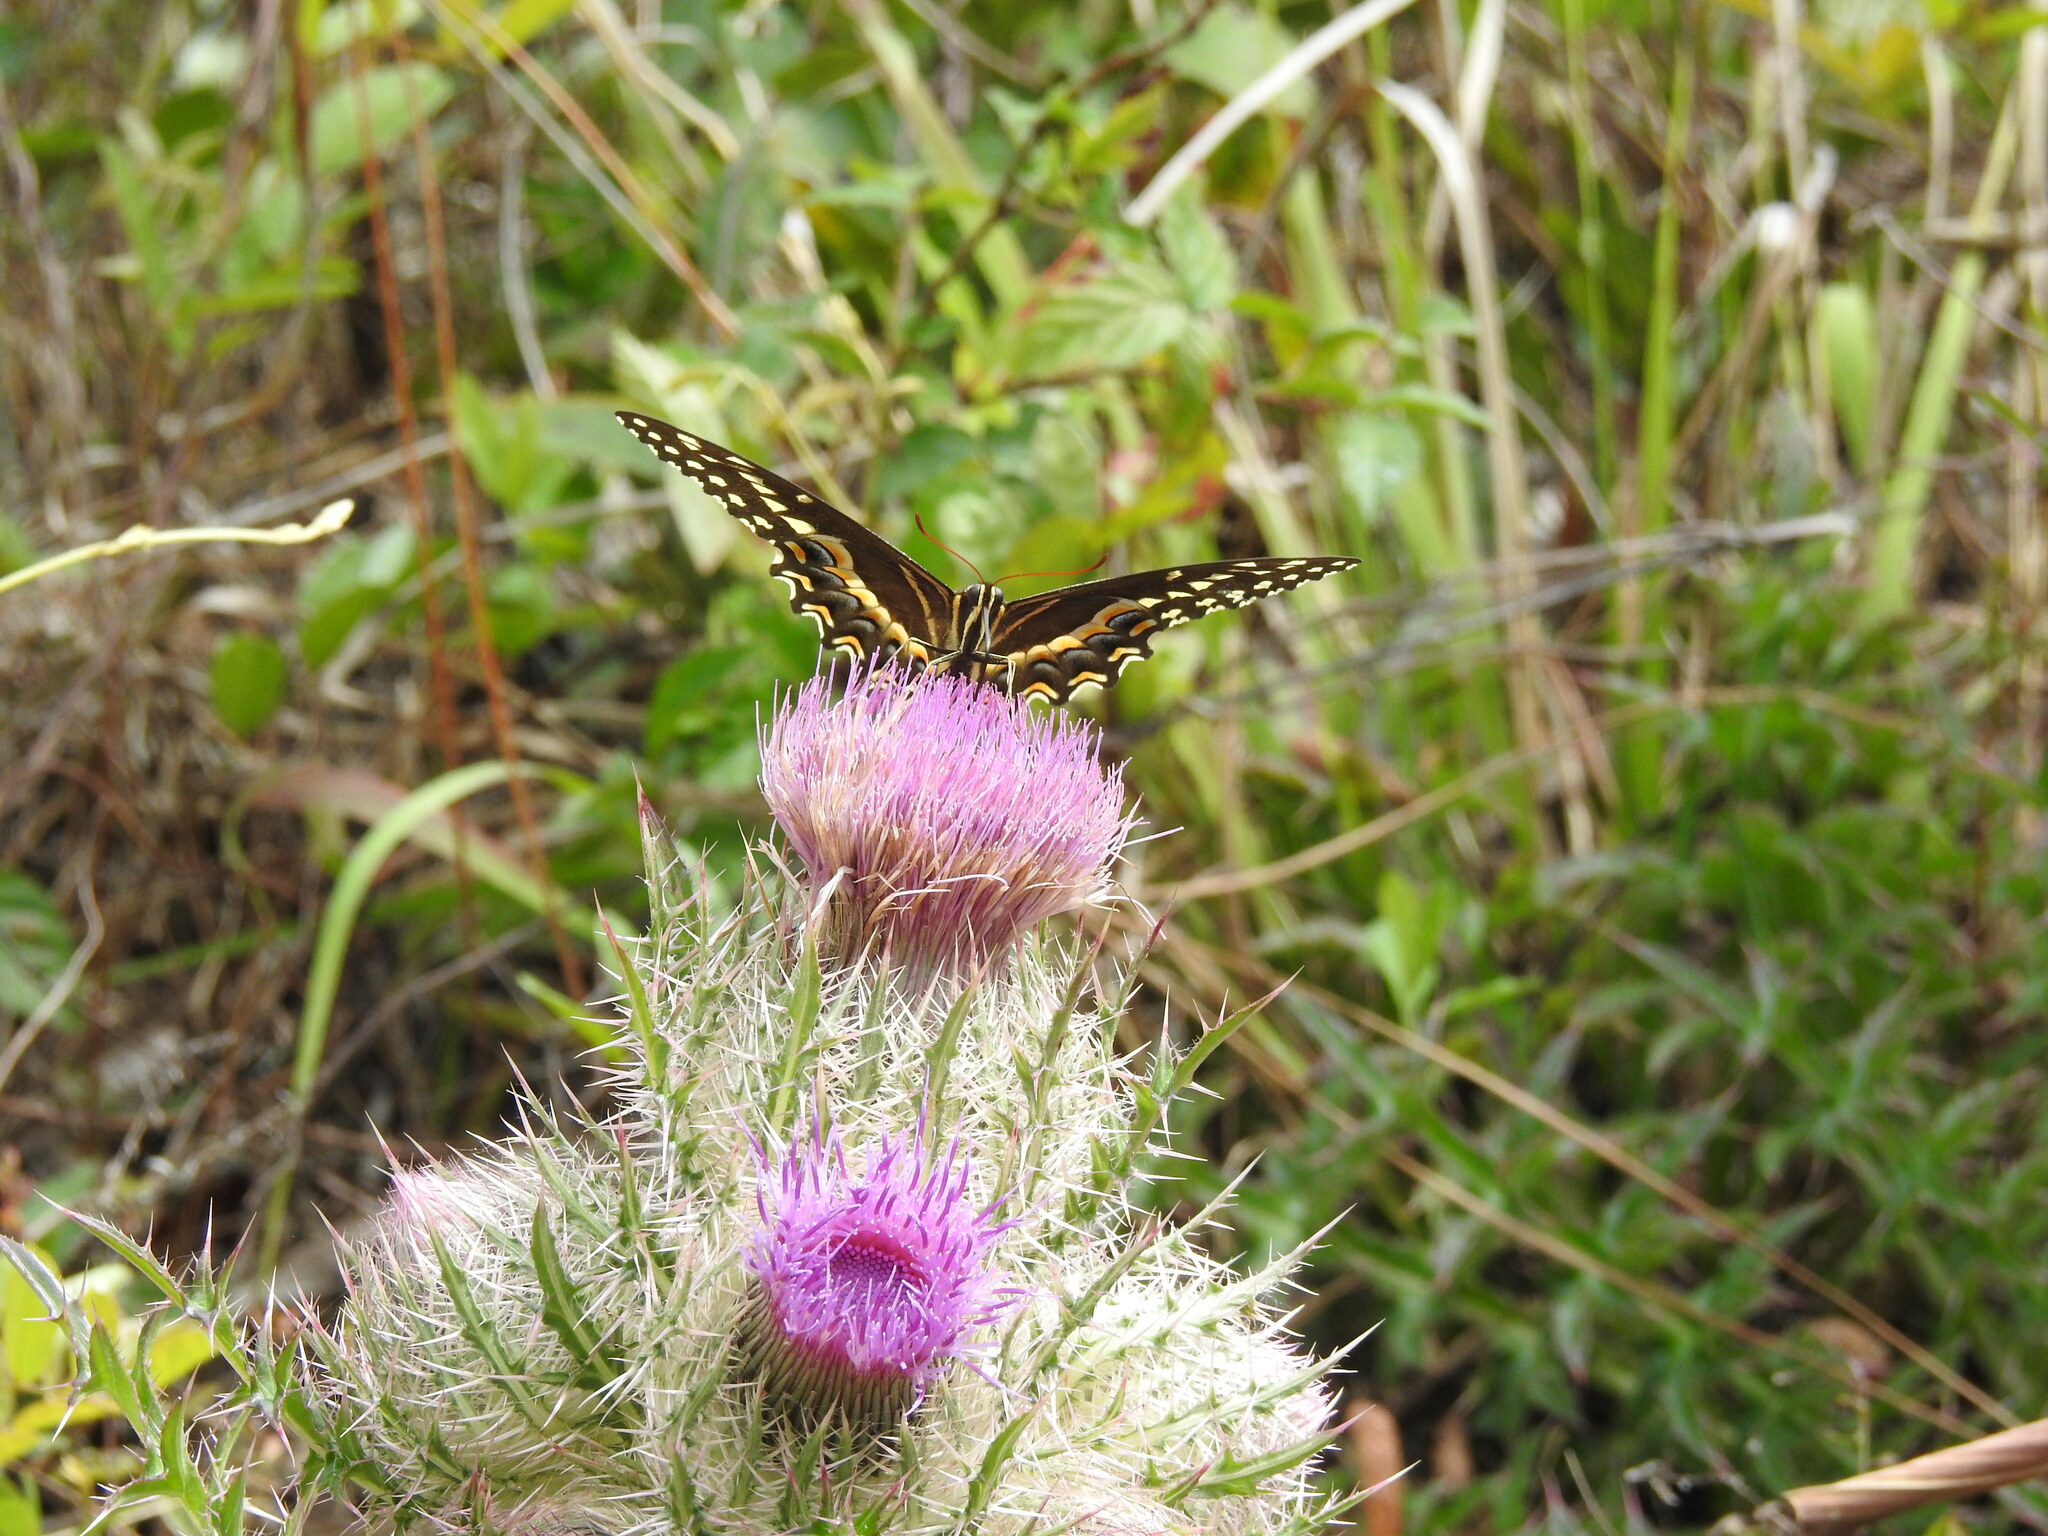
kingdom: Animalia
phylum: Arthropoda
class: Insecta
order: Lepidoptera
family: Papilionidae
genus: Papilio
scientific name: Papilio palamedes
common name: Palamedes swallowtail
